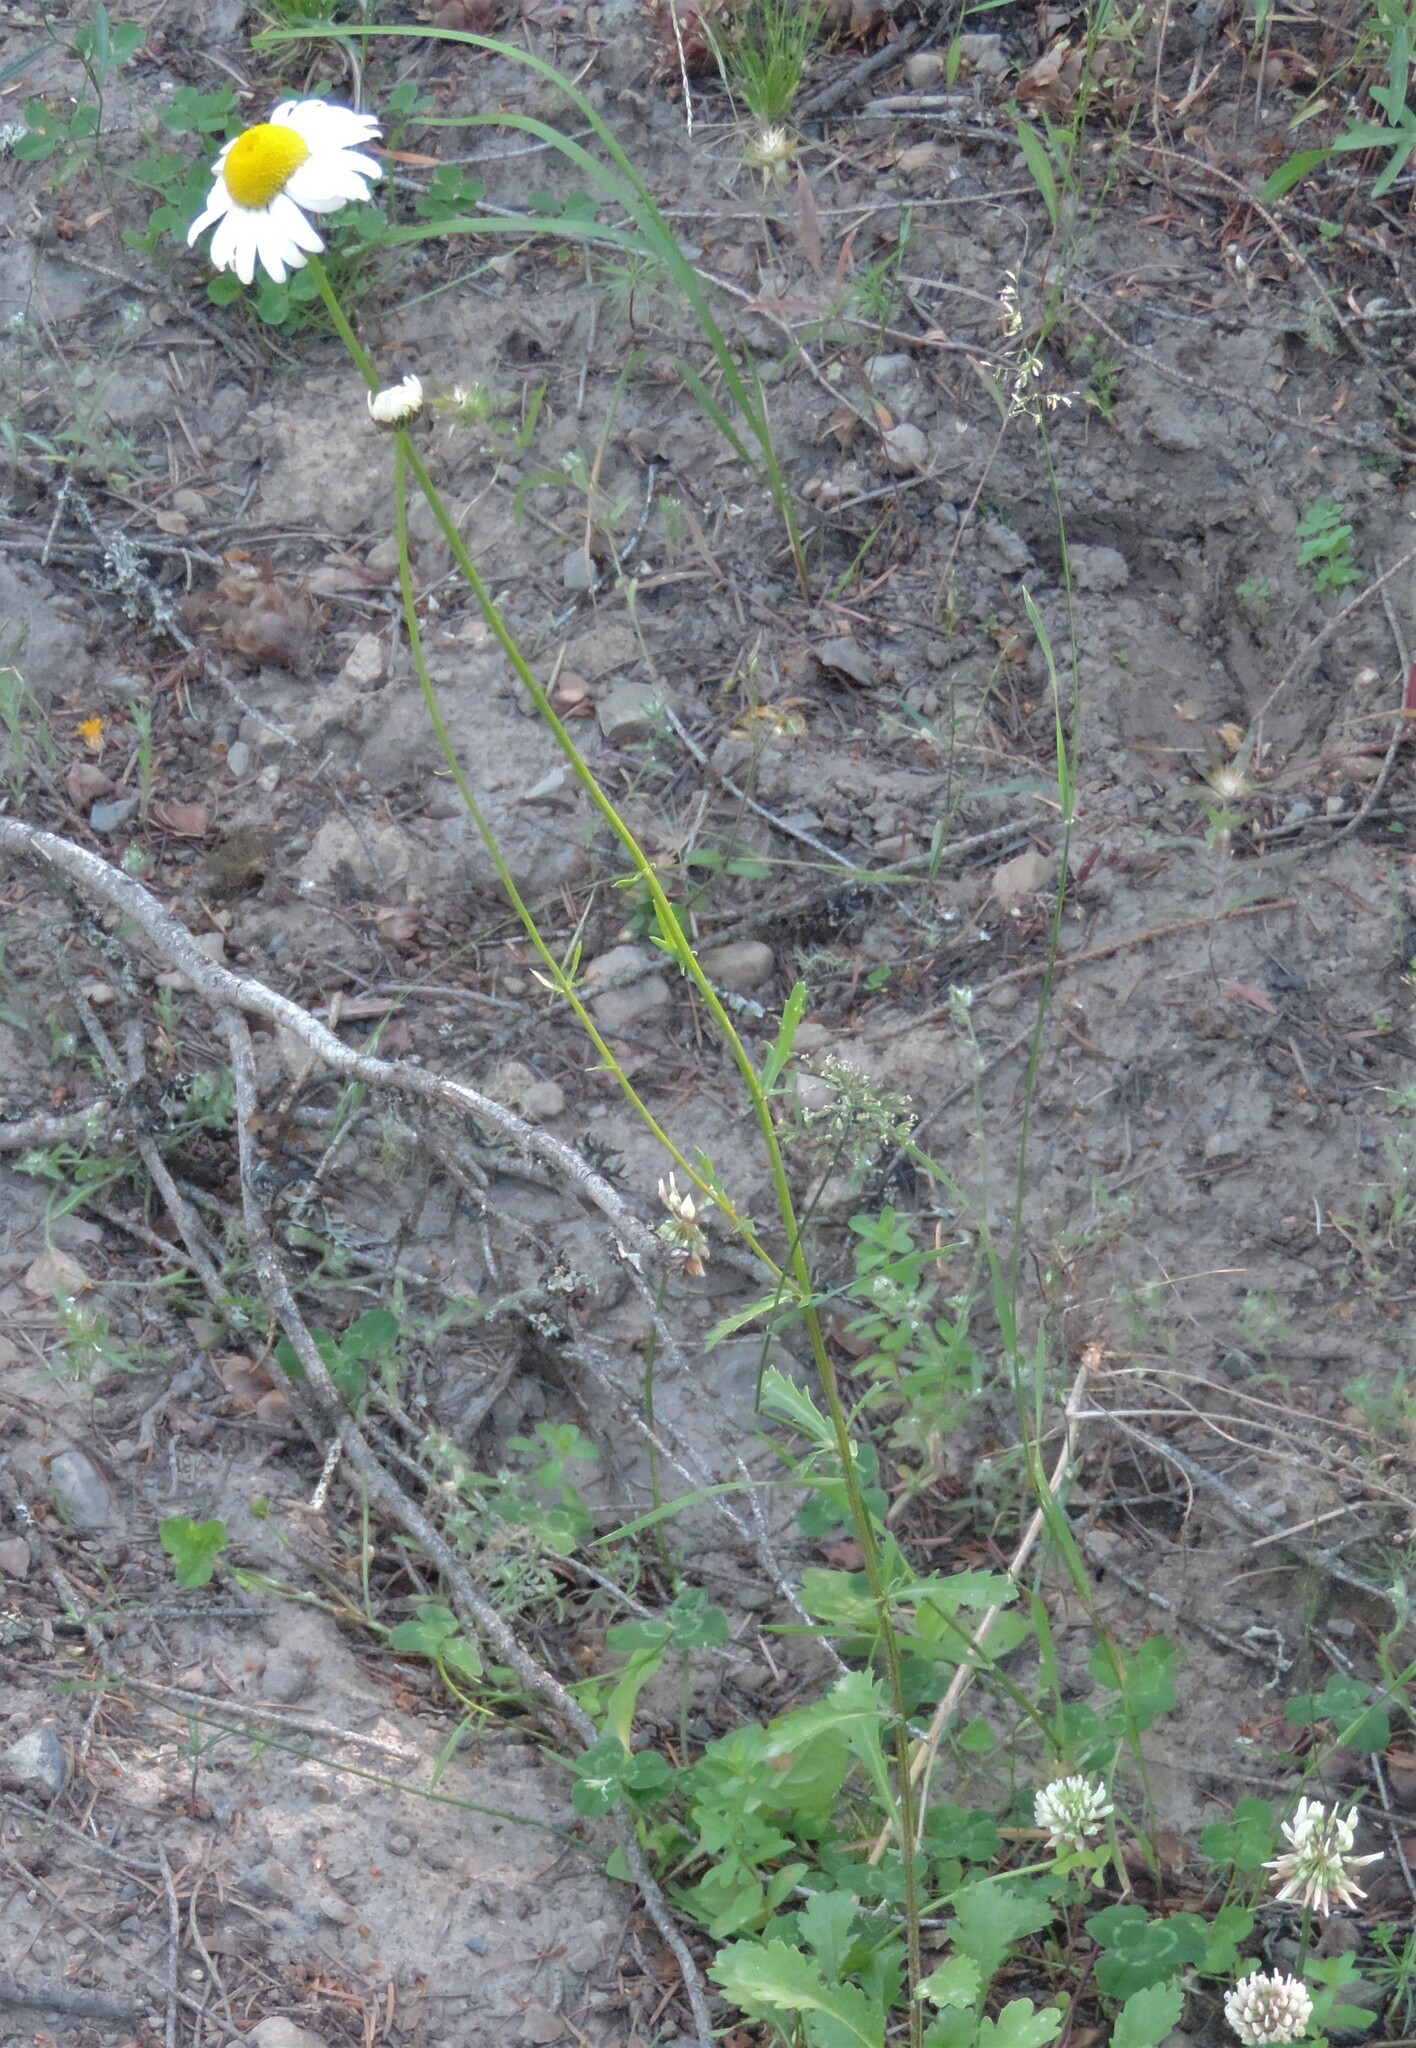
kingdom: Plantae
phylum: Tracheophyta
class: Magnoliopsida
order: Asterales
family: Asteraceae
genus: Leucanthemum
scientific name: Leucanthemum vulgare
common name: Oxeye daisy
